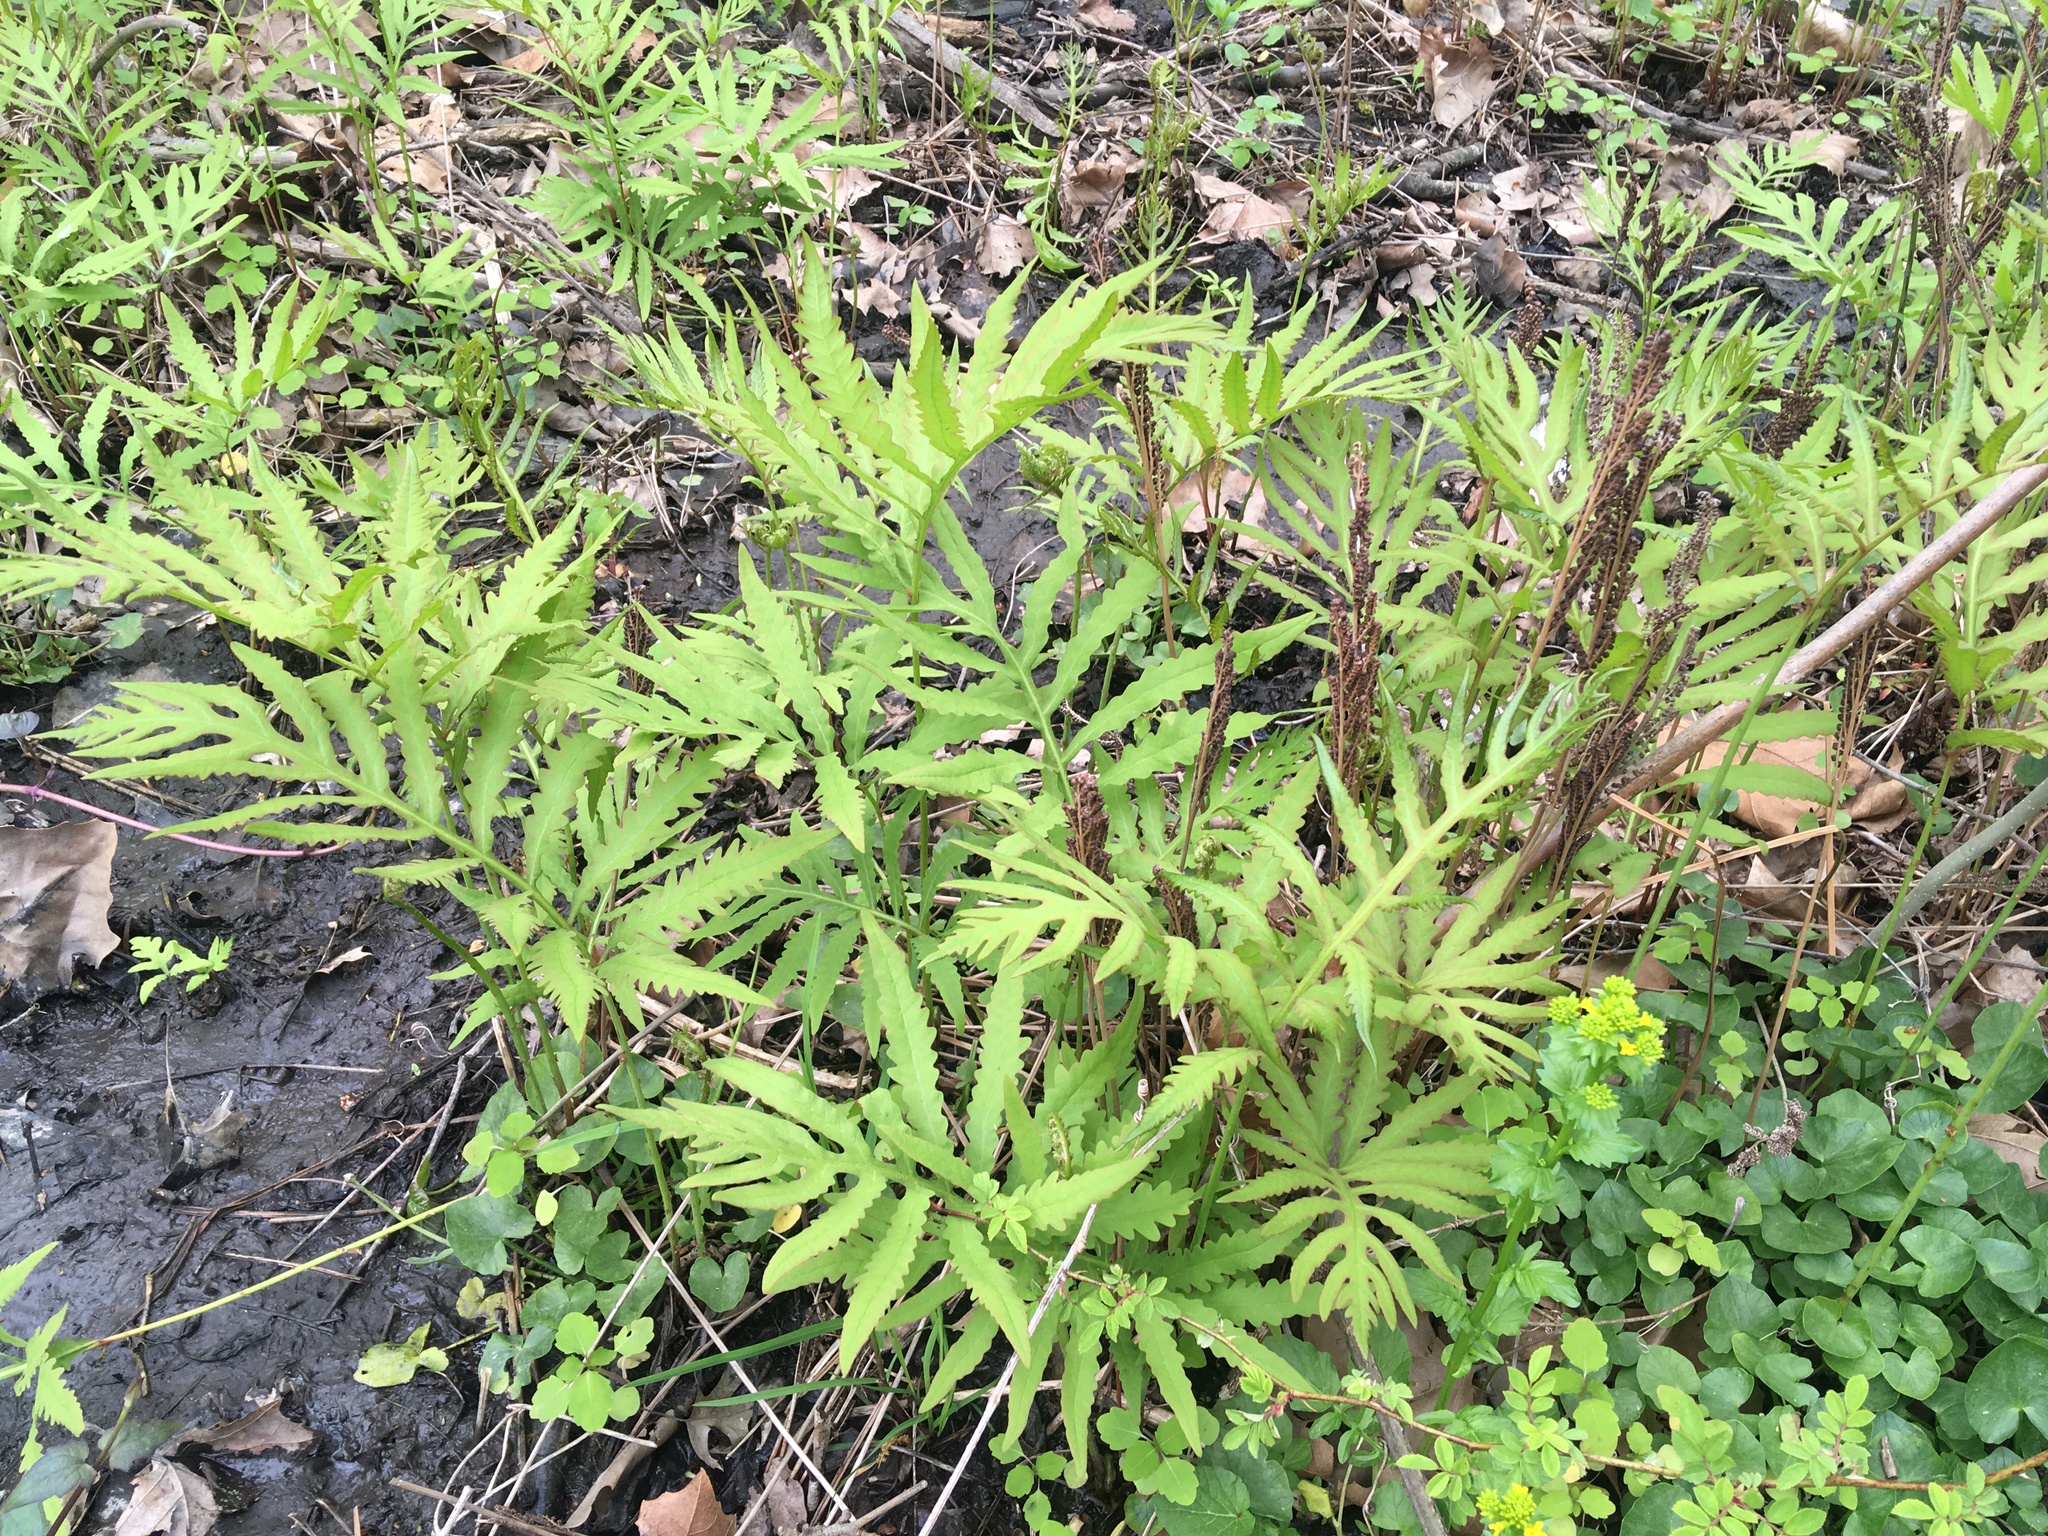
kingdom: Plantae
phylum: Tracheophyta
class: Polypodiopsida
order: Polypodiales
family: Onocleaceae
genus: Onoclea
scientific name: Onoclea sensibilis
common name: Sensitive fern
